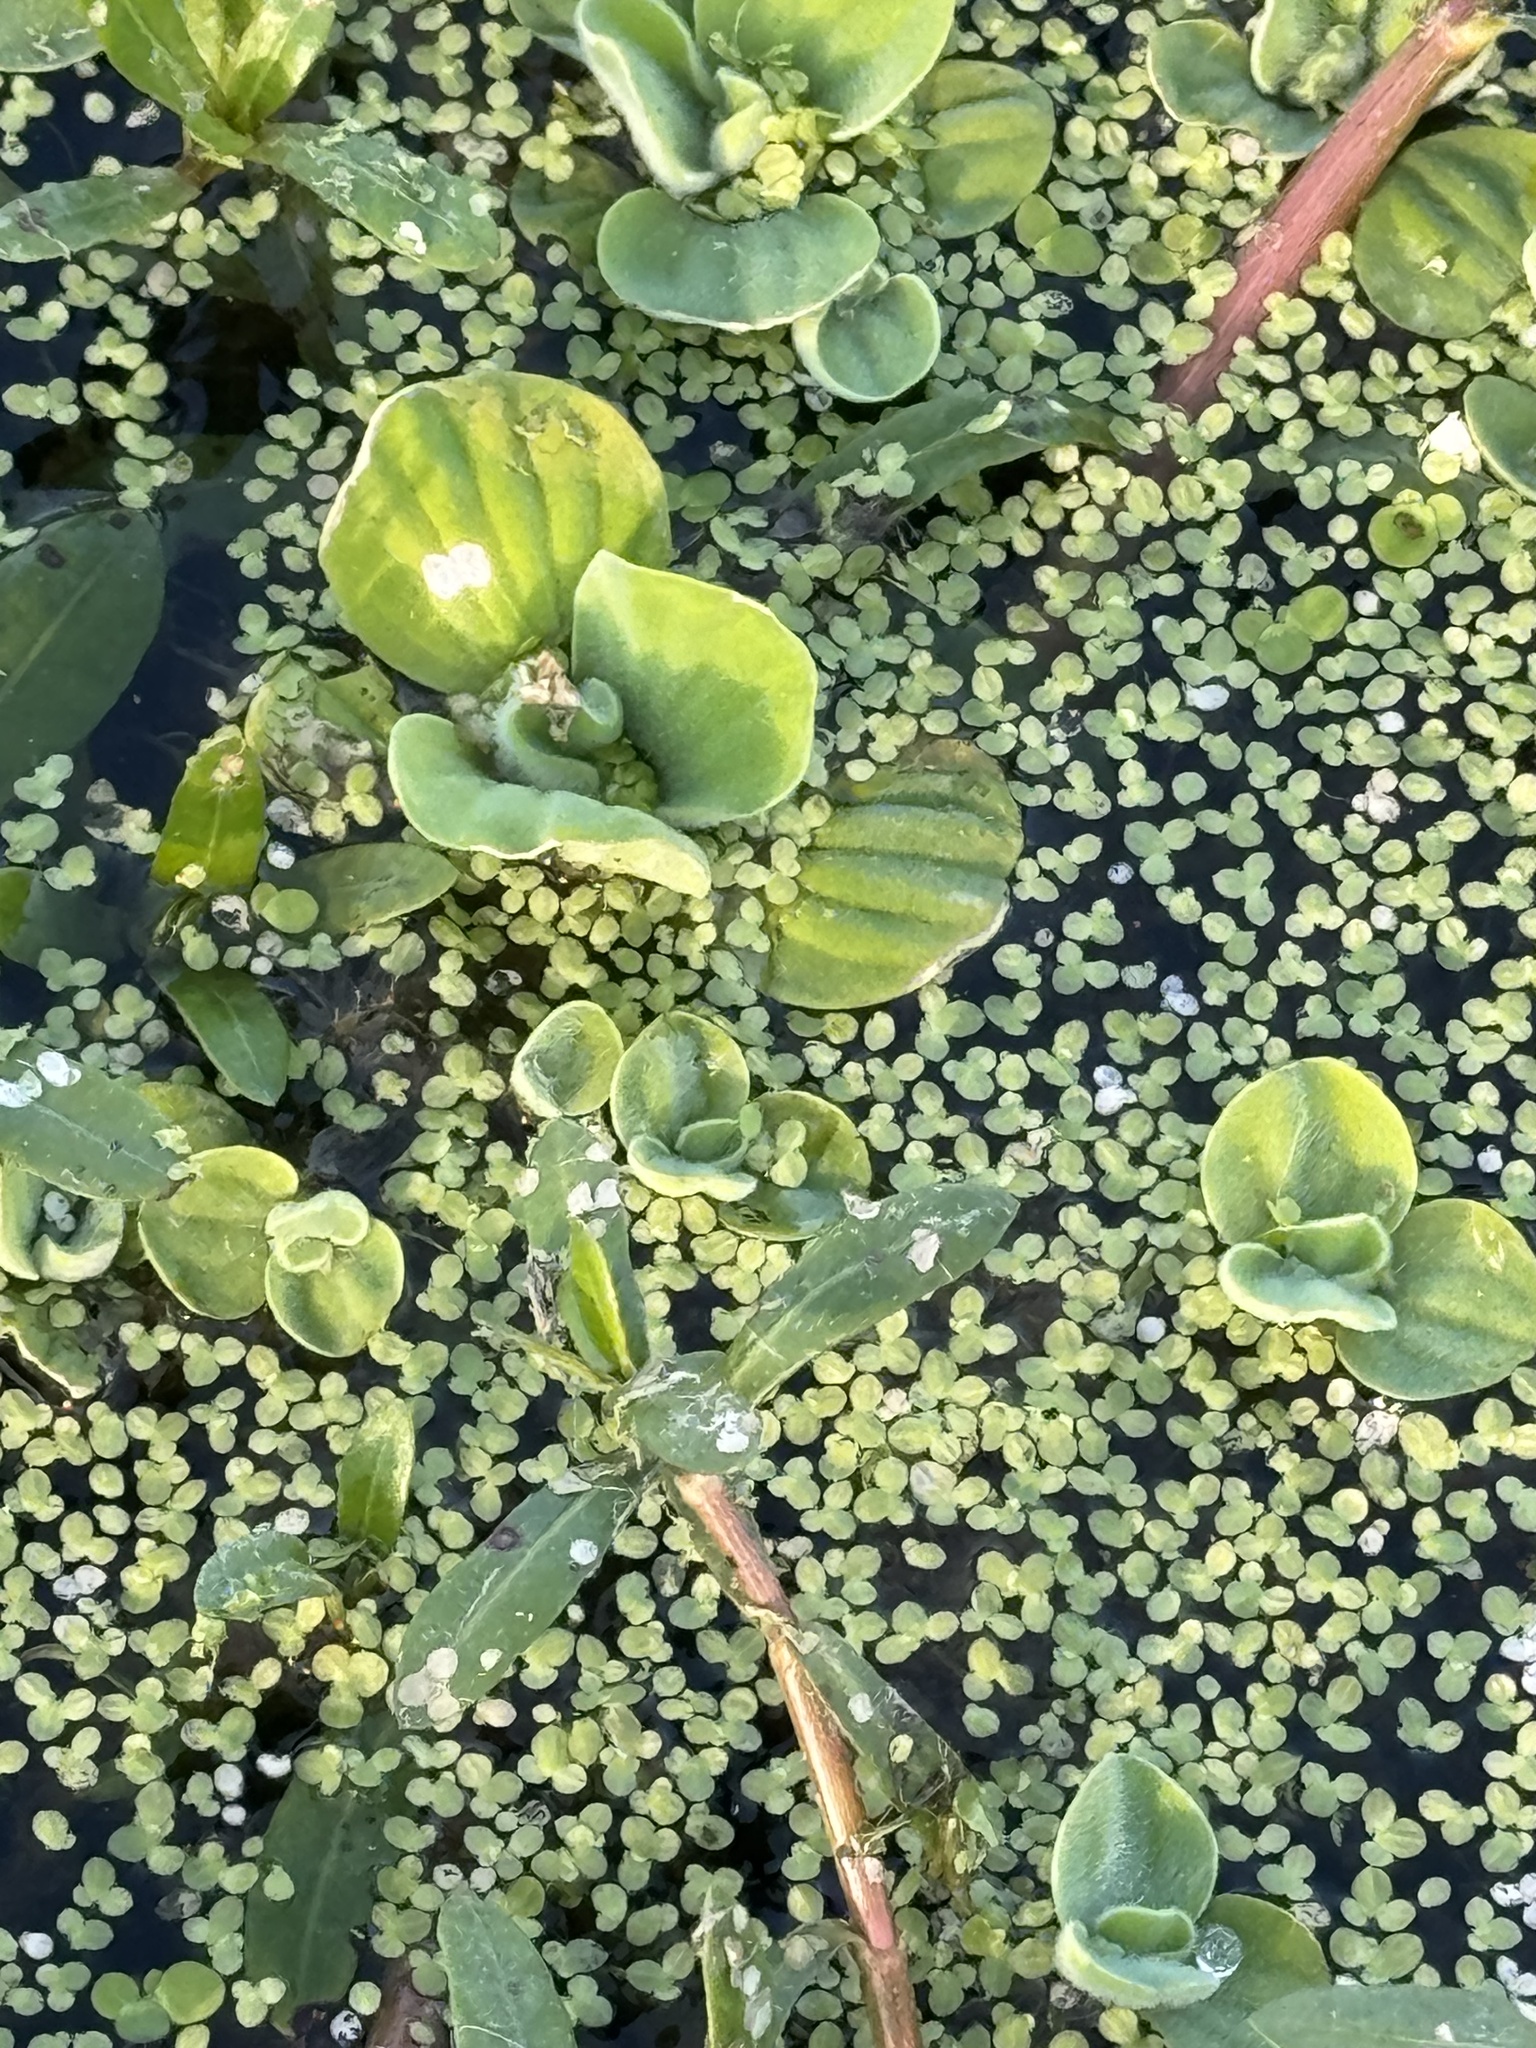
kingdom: Plantae
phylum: Tracheophyta
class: Liliopsida
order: Alismatales
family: Araceae
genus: Pistia
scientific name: Pistia stratiotes
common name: Water lettuce
